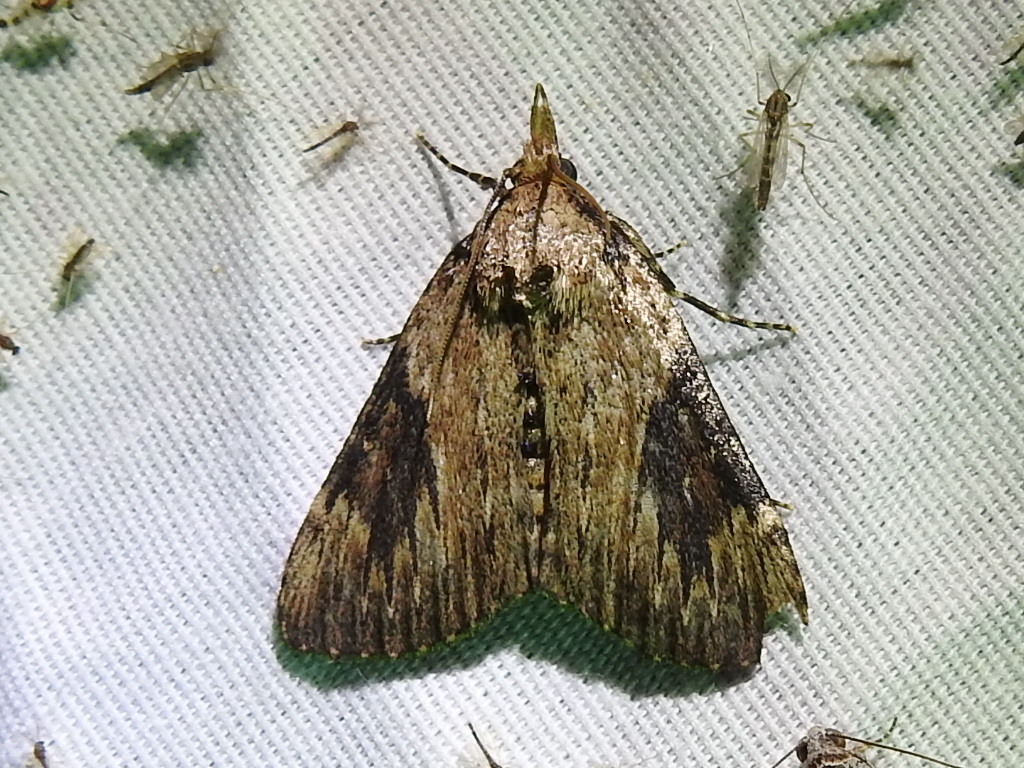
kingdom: Animalia
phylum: Arthropoda
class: Insecta
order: Lepidoptera
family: Pyralidae
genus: Omphalocera
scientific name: Omphalocera cariosa
